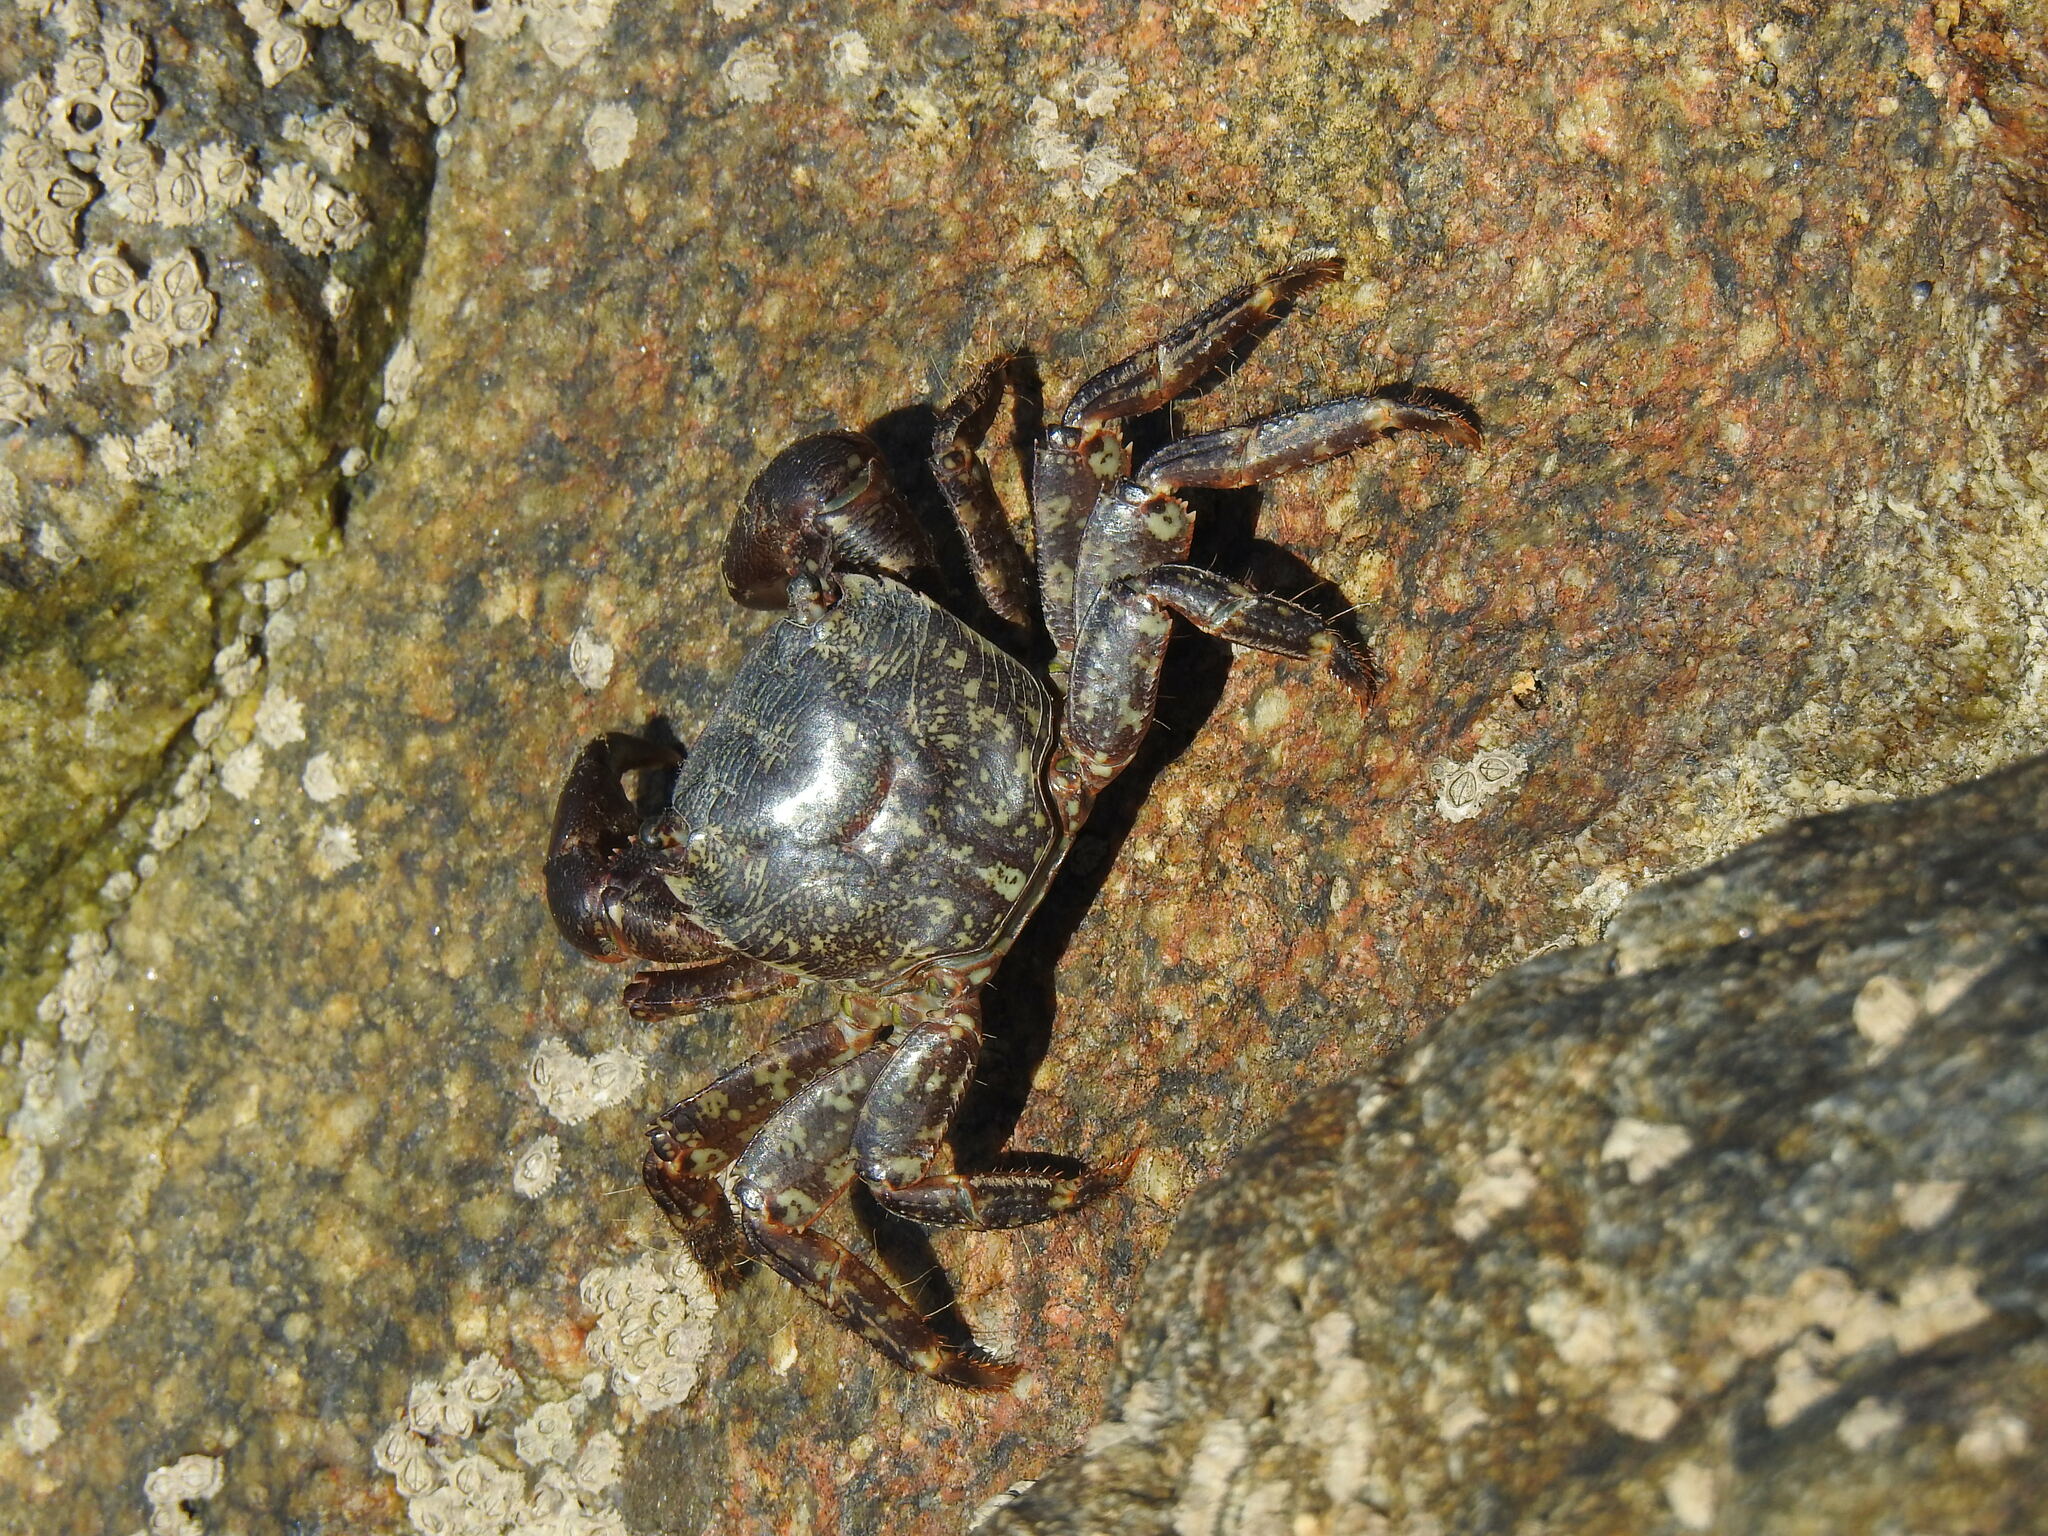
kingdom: Animalia
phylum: Arthropoda
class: Malacostraca
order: Decapoda
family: Grapsidae
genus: Pachygrapsus
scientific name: Pachygrapsus marmoratus
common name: Marbled rock crab
